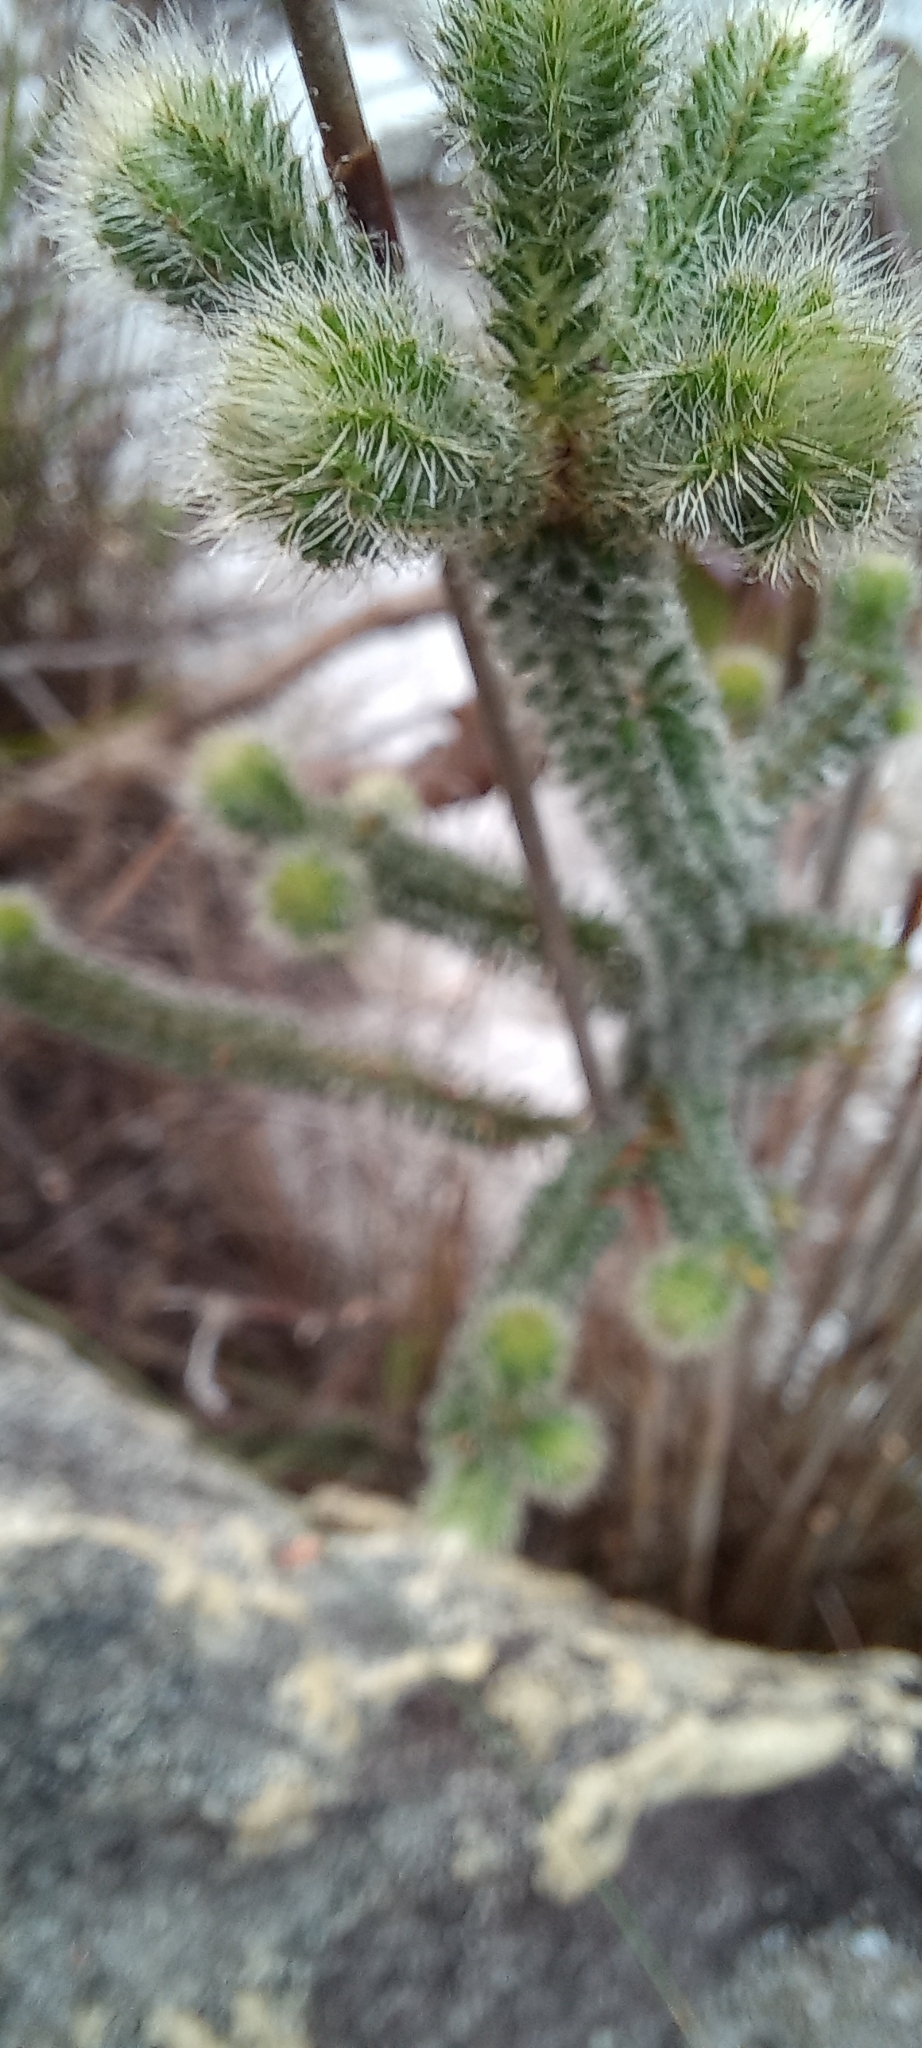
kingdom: Plantae
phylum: Tracheophyta
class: Magnoliopsida
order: Ericales
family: Ericaceae
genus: Erica
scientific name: Erica massonii
